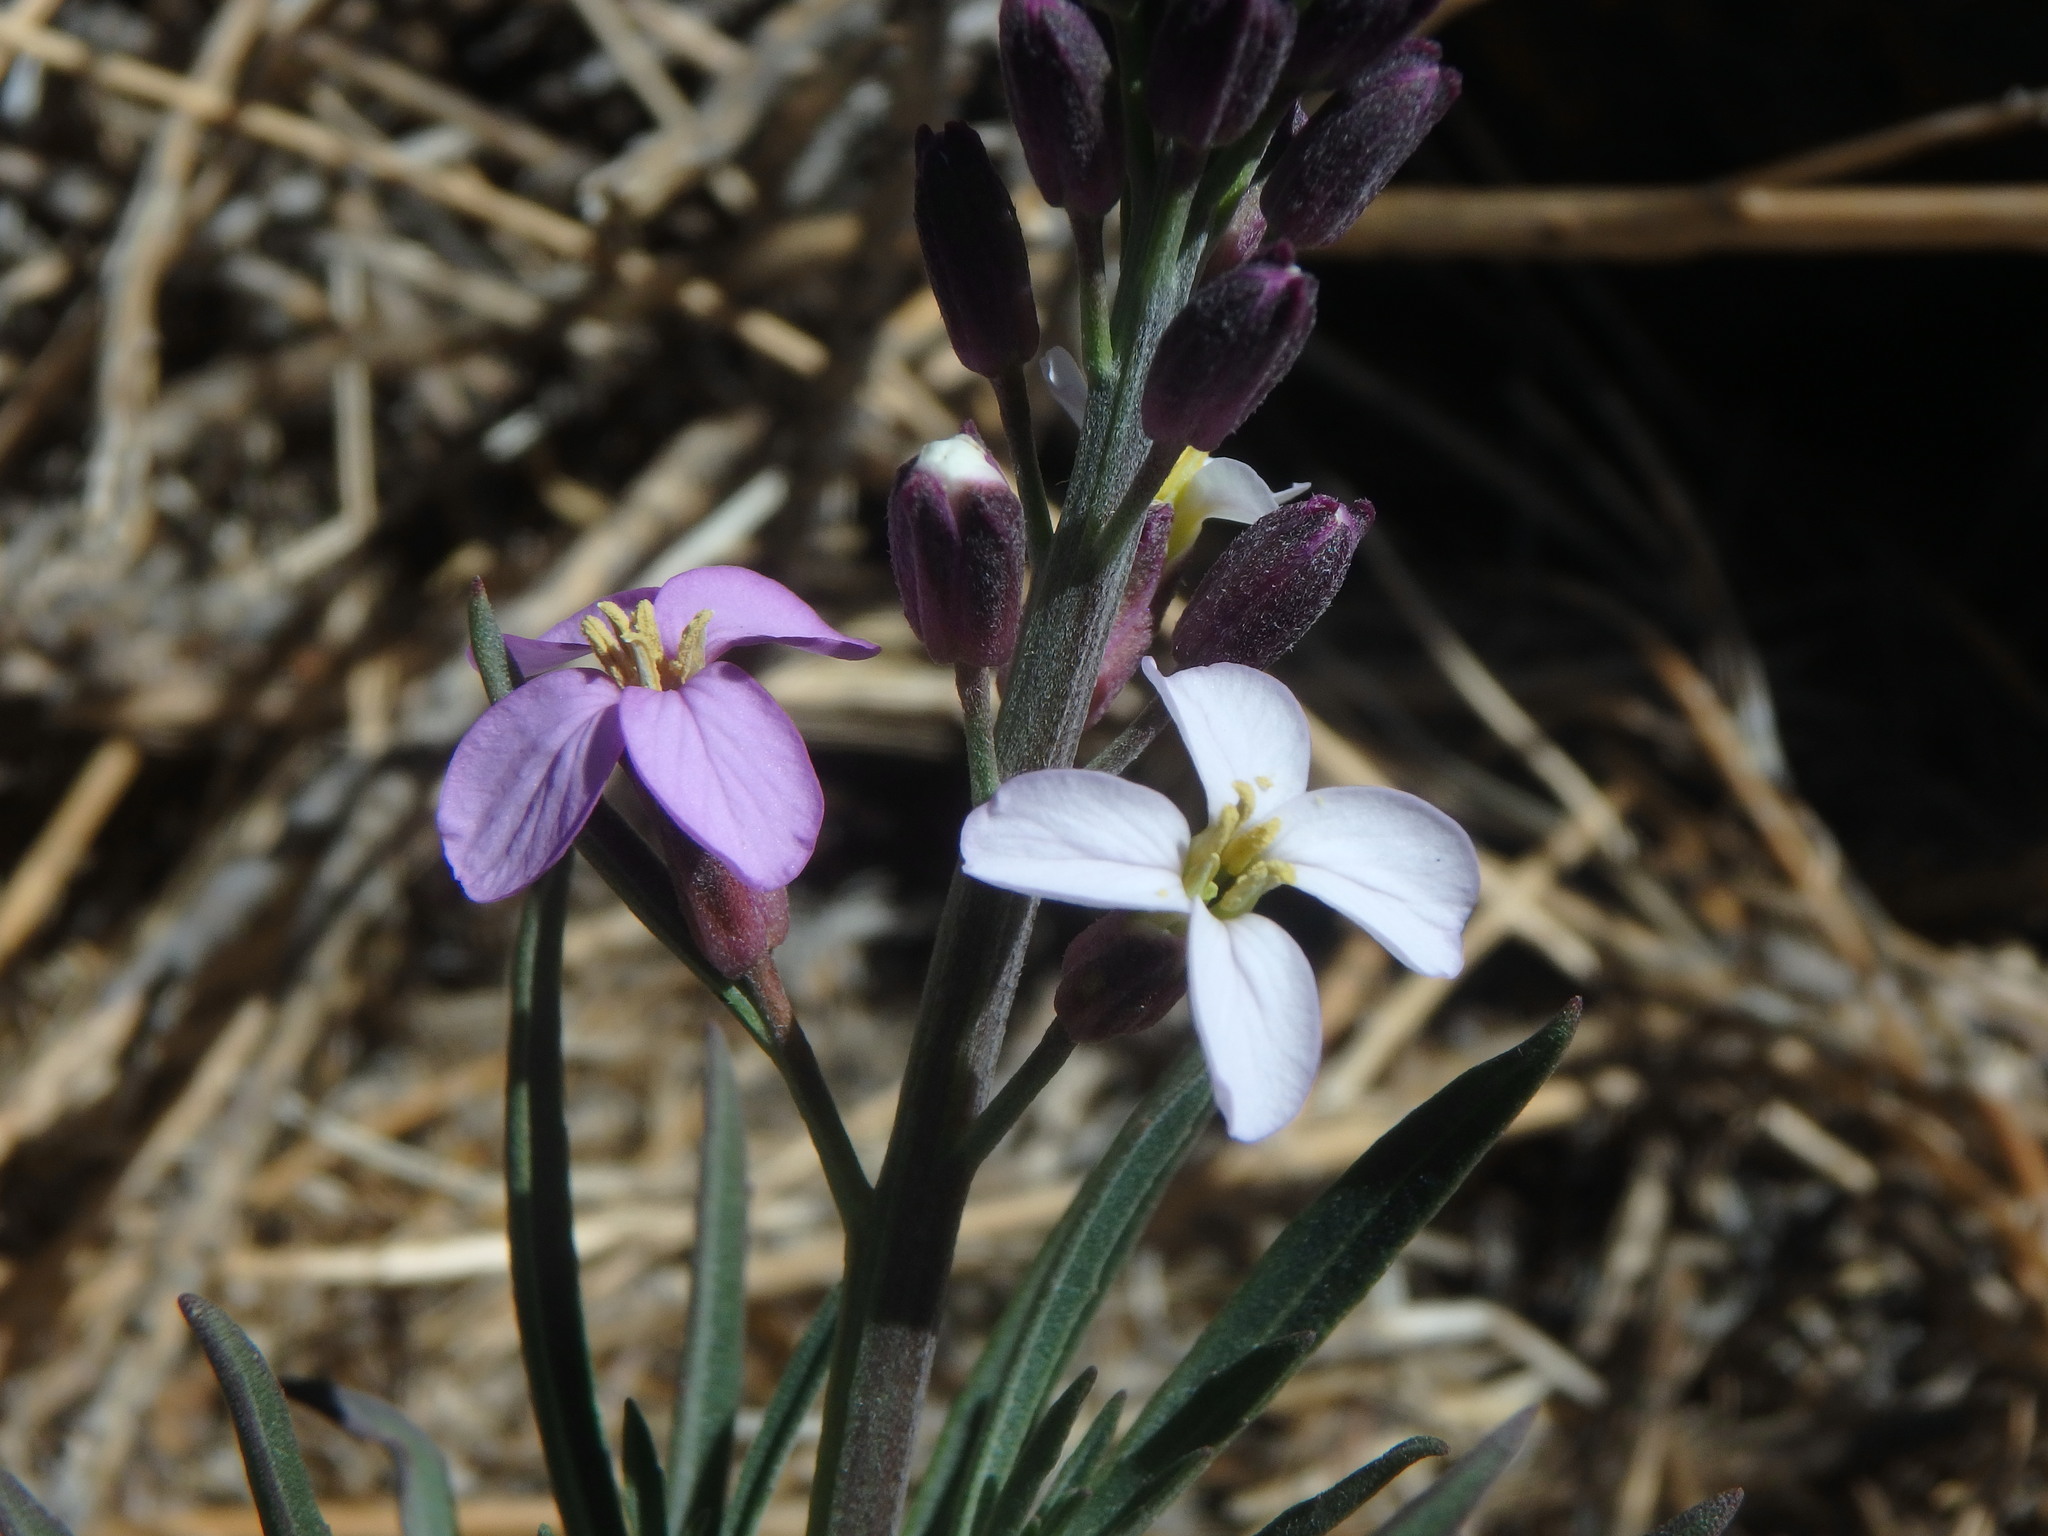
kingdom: Plantae
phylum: Tracheophyta
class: Magnoliopsida
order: Brassicales
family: Brassicaceae
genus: Erysimum
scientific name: Erysimum scoparium
